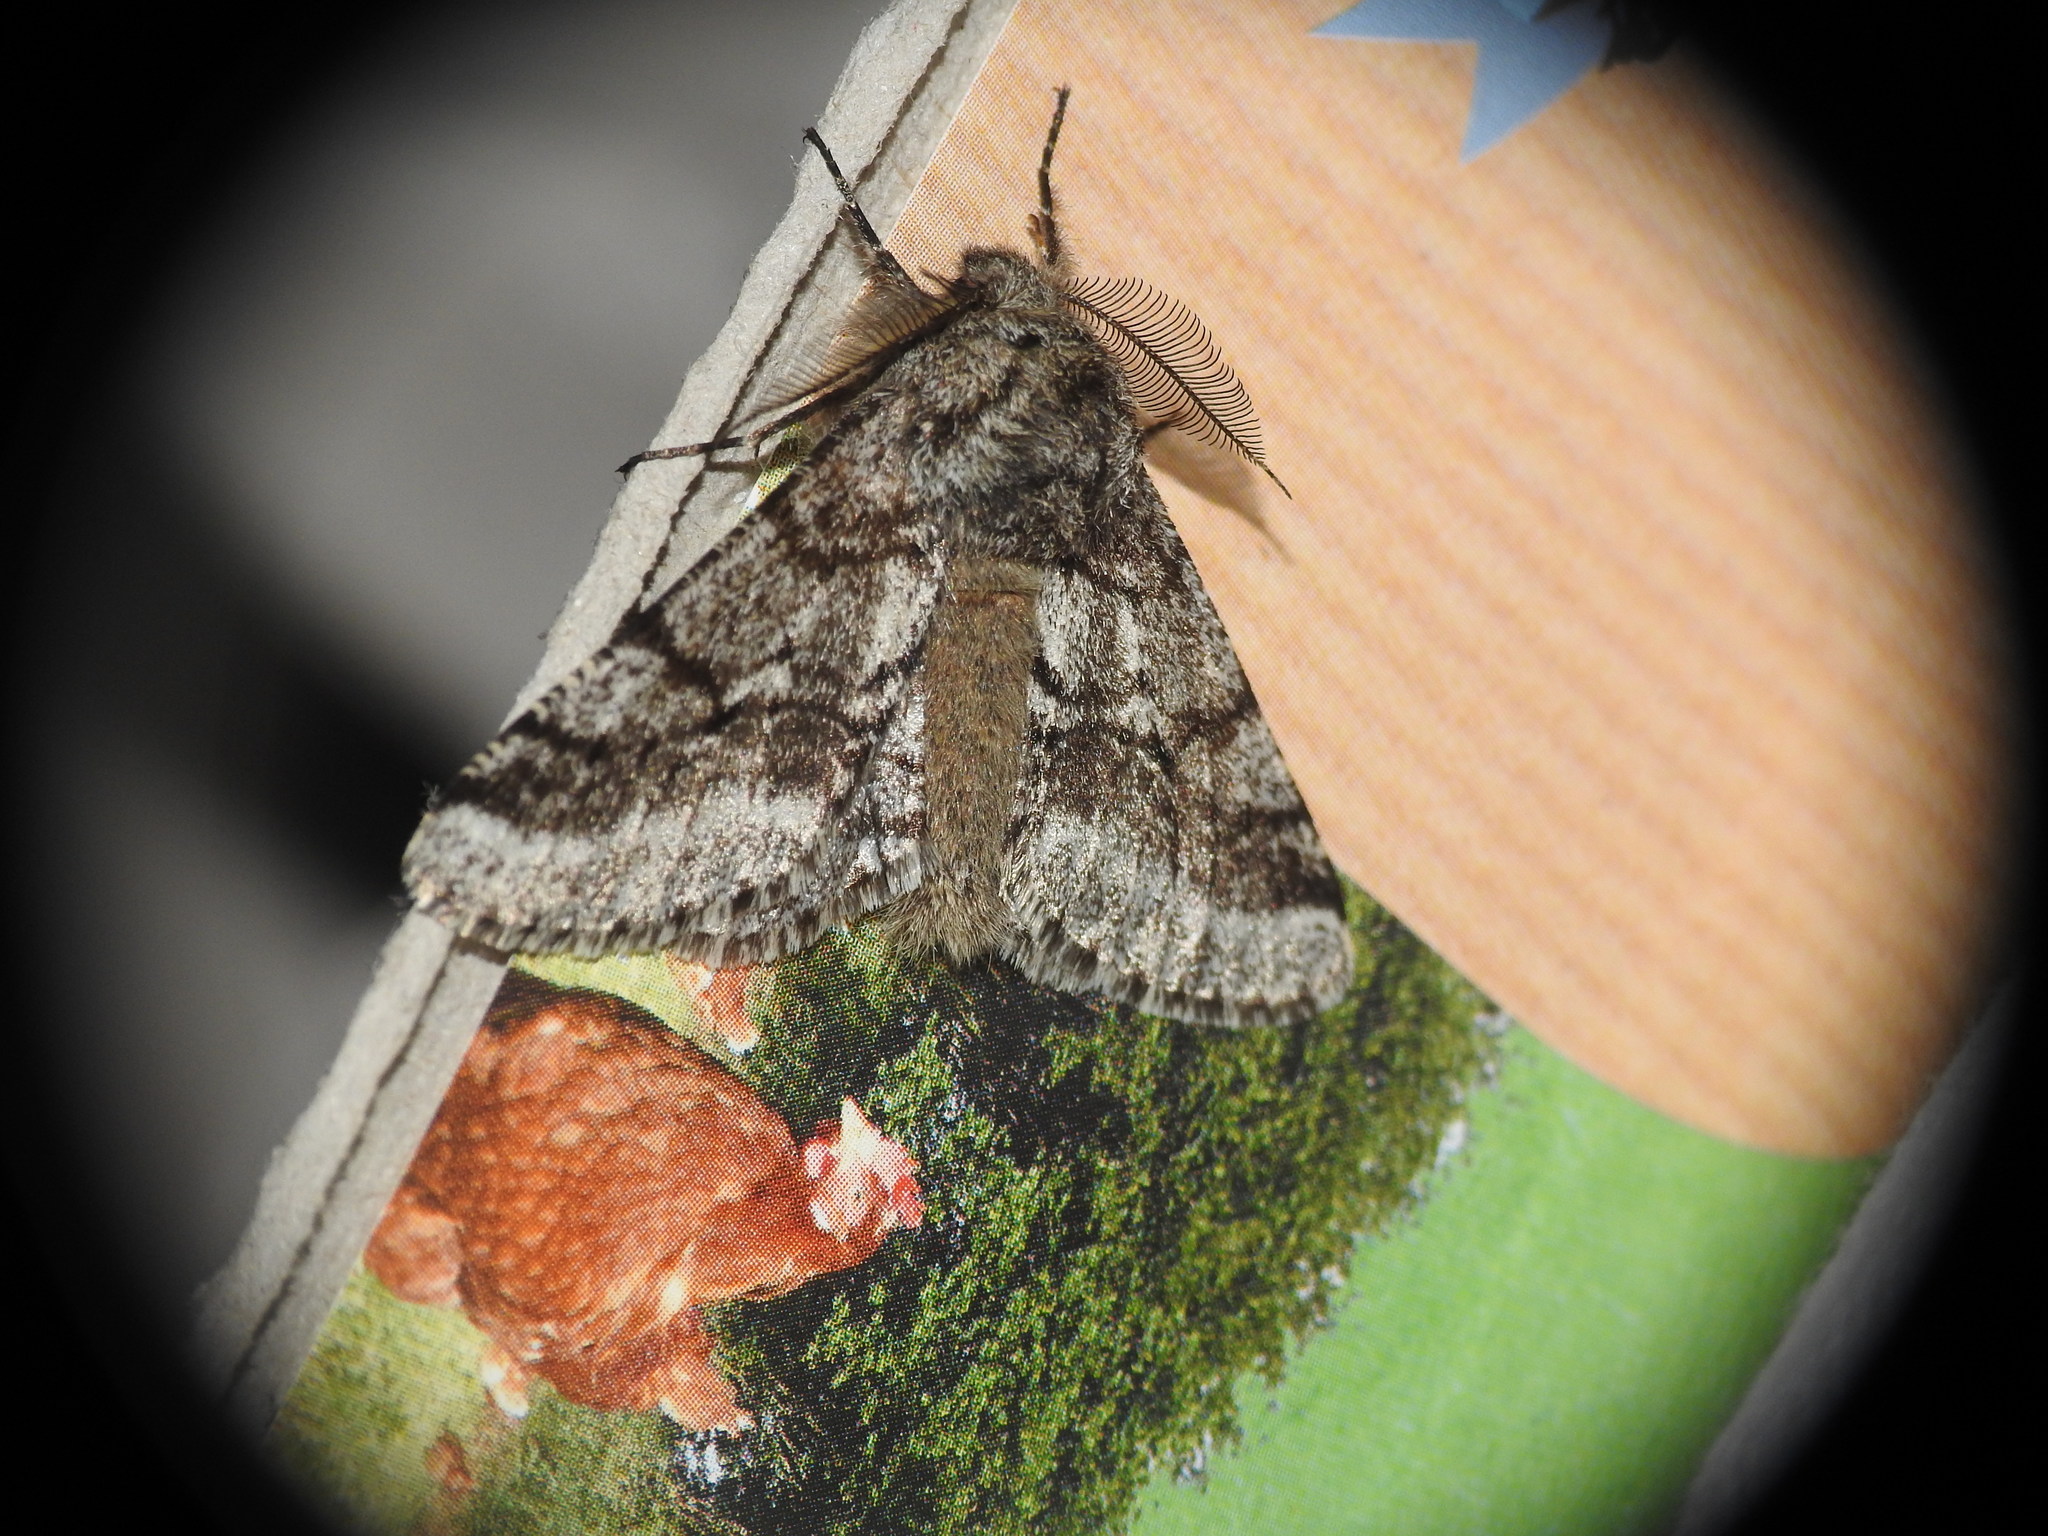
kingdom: Animalia
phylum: Arthropoda
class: Insecta
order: Lepidoptera
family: Geometridae
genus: Lycia
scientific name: Lycia hirtaria
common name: Brindled beauty
